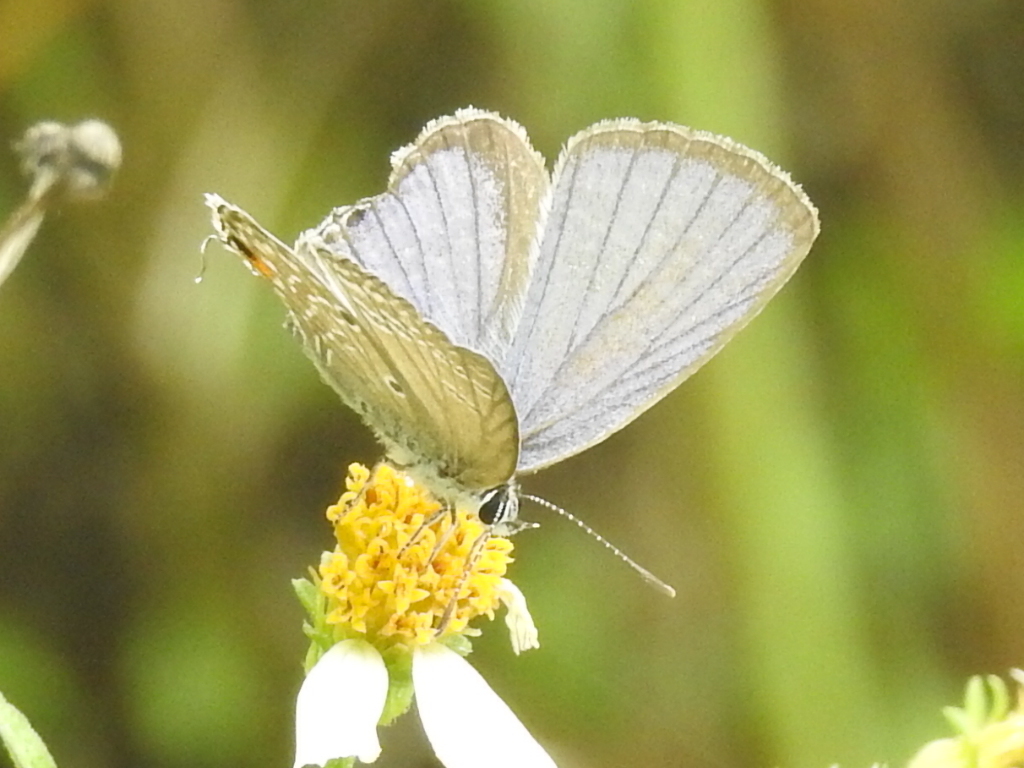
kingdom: Animalia
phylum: Arthropoda
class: Insecta
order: Lepidoptera
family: Lycaenidae
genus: Luthrodes
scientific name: Luthrodes pandava
